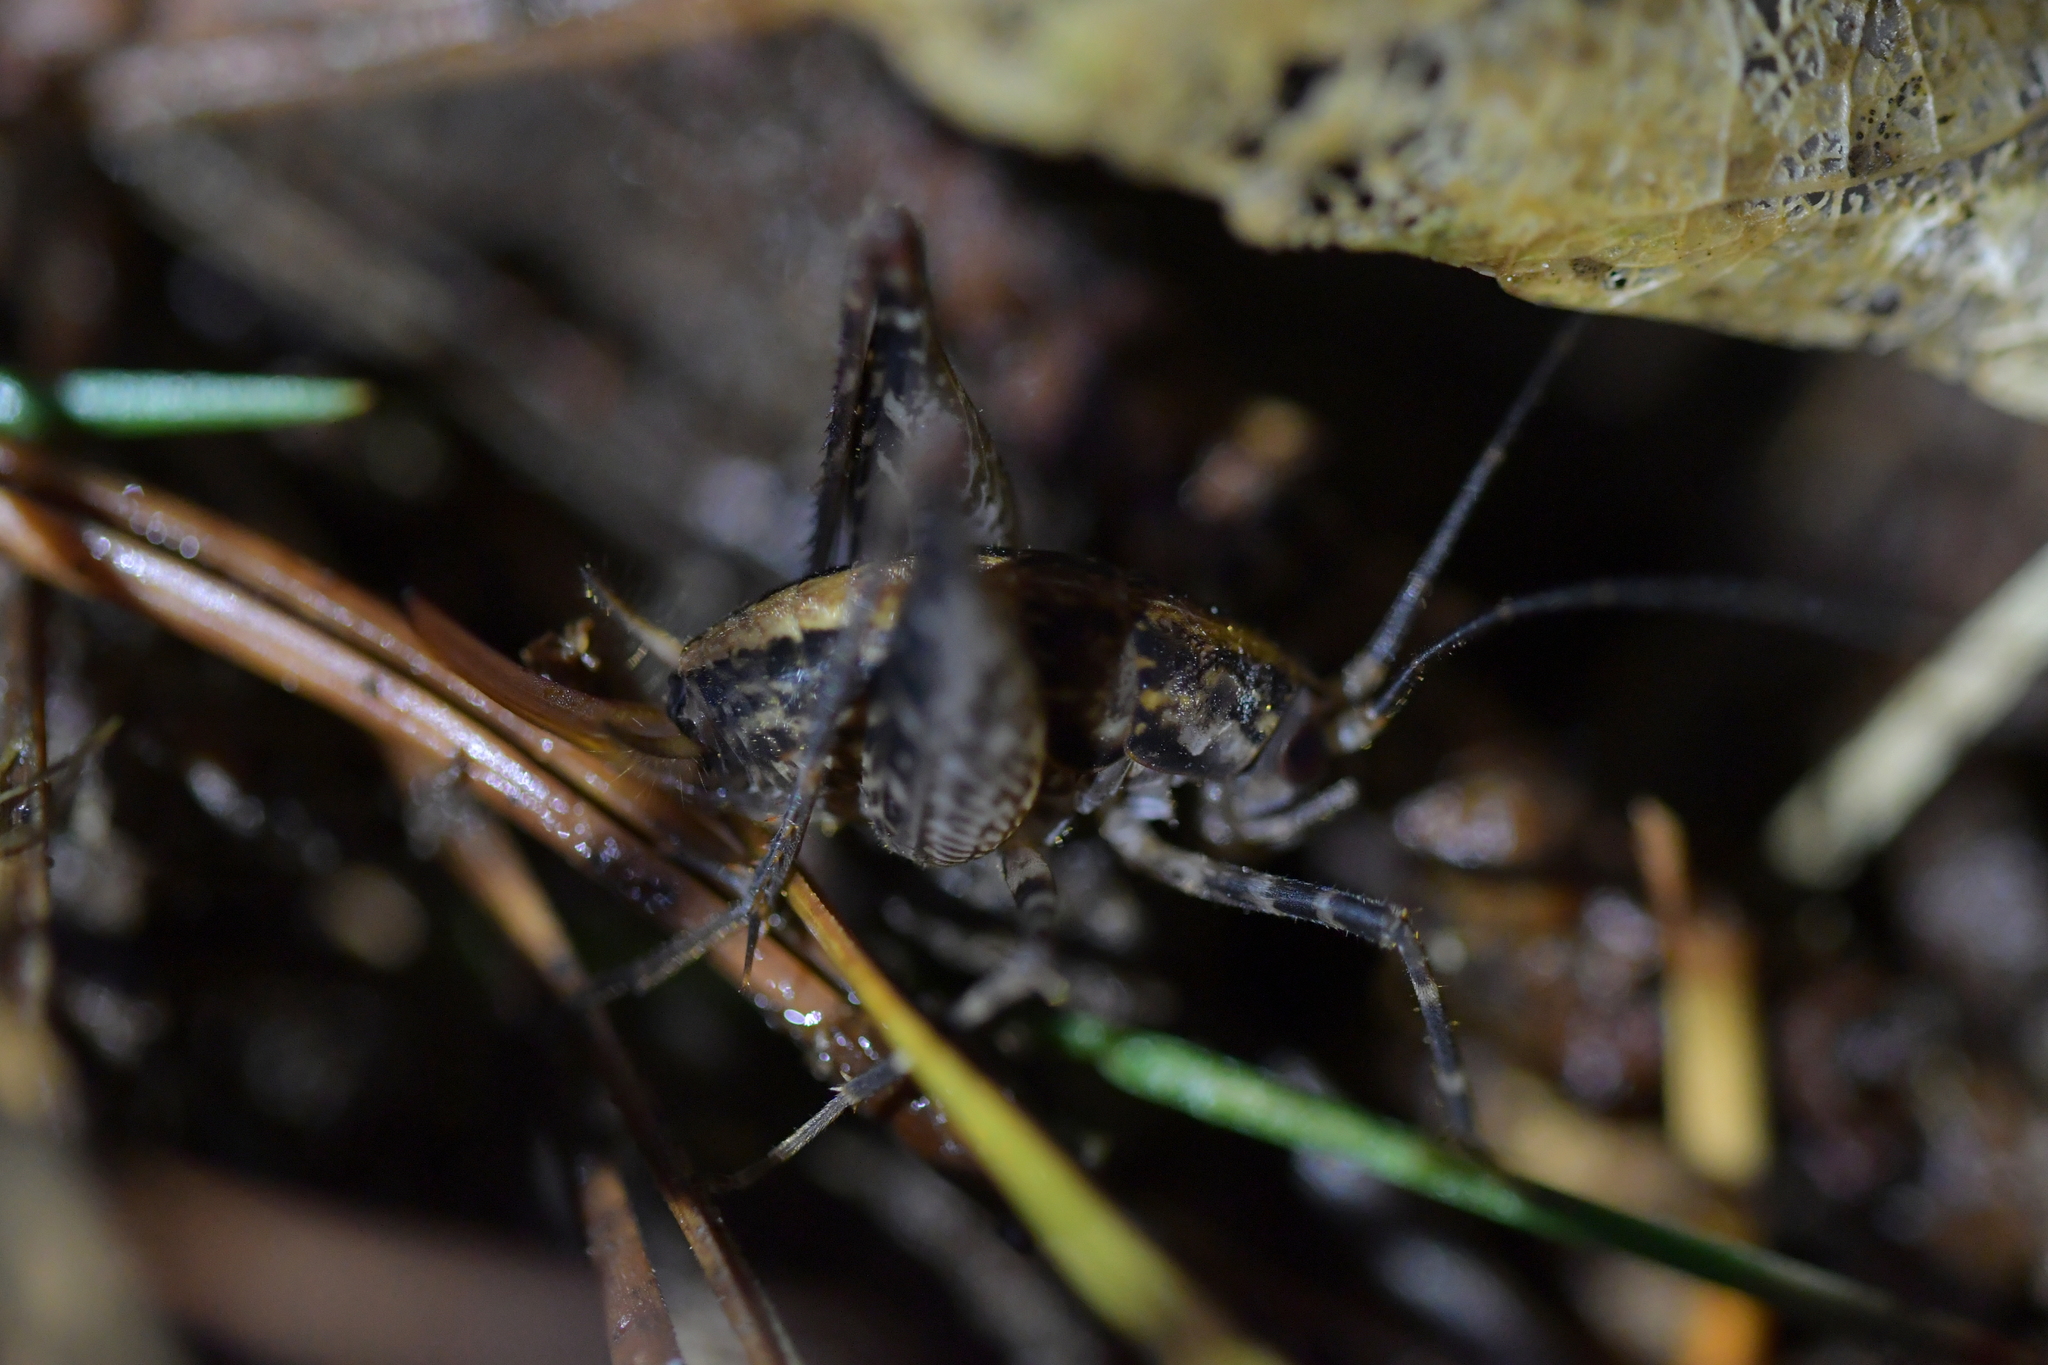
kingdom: Animalia
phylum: Arthropoda
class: Insecta
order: Orthoptera
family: Rhaphidophoridae
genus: Pleioplectron
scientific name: Pleioplectron hudsoni
